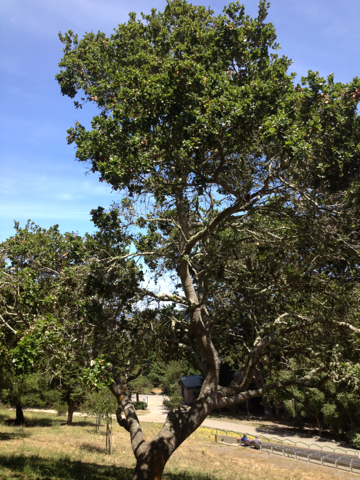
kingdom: Plantae
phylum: Tracheophyta
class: Magnoliopsida
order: Fagales
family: Fagaceae
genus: Quercus
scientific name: Quercus agrifolia
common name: California live oak
